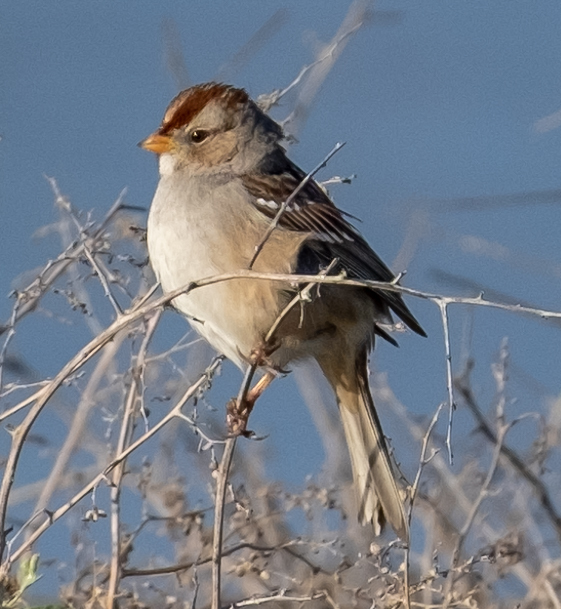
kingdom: Animalia
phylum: Chordata
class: Aves
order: Passeriformes
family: Passerellidae
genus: Zonotrichia
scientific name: Zonotrichia leucophrys
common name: White-crowned sparrow
